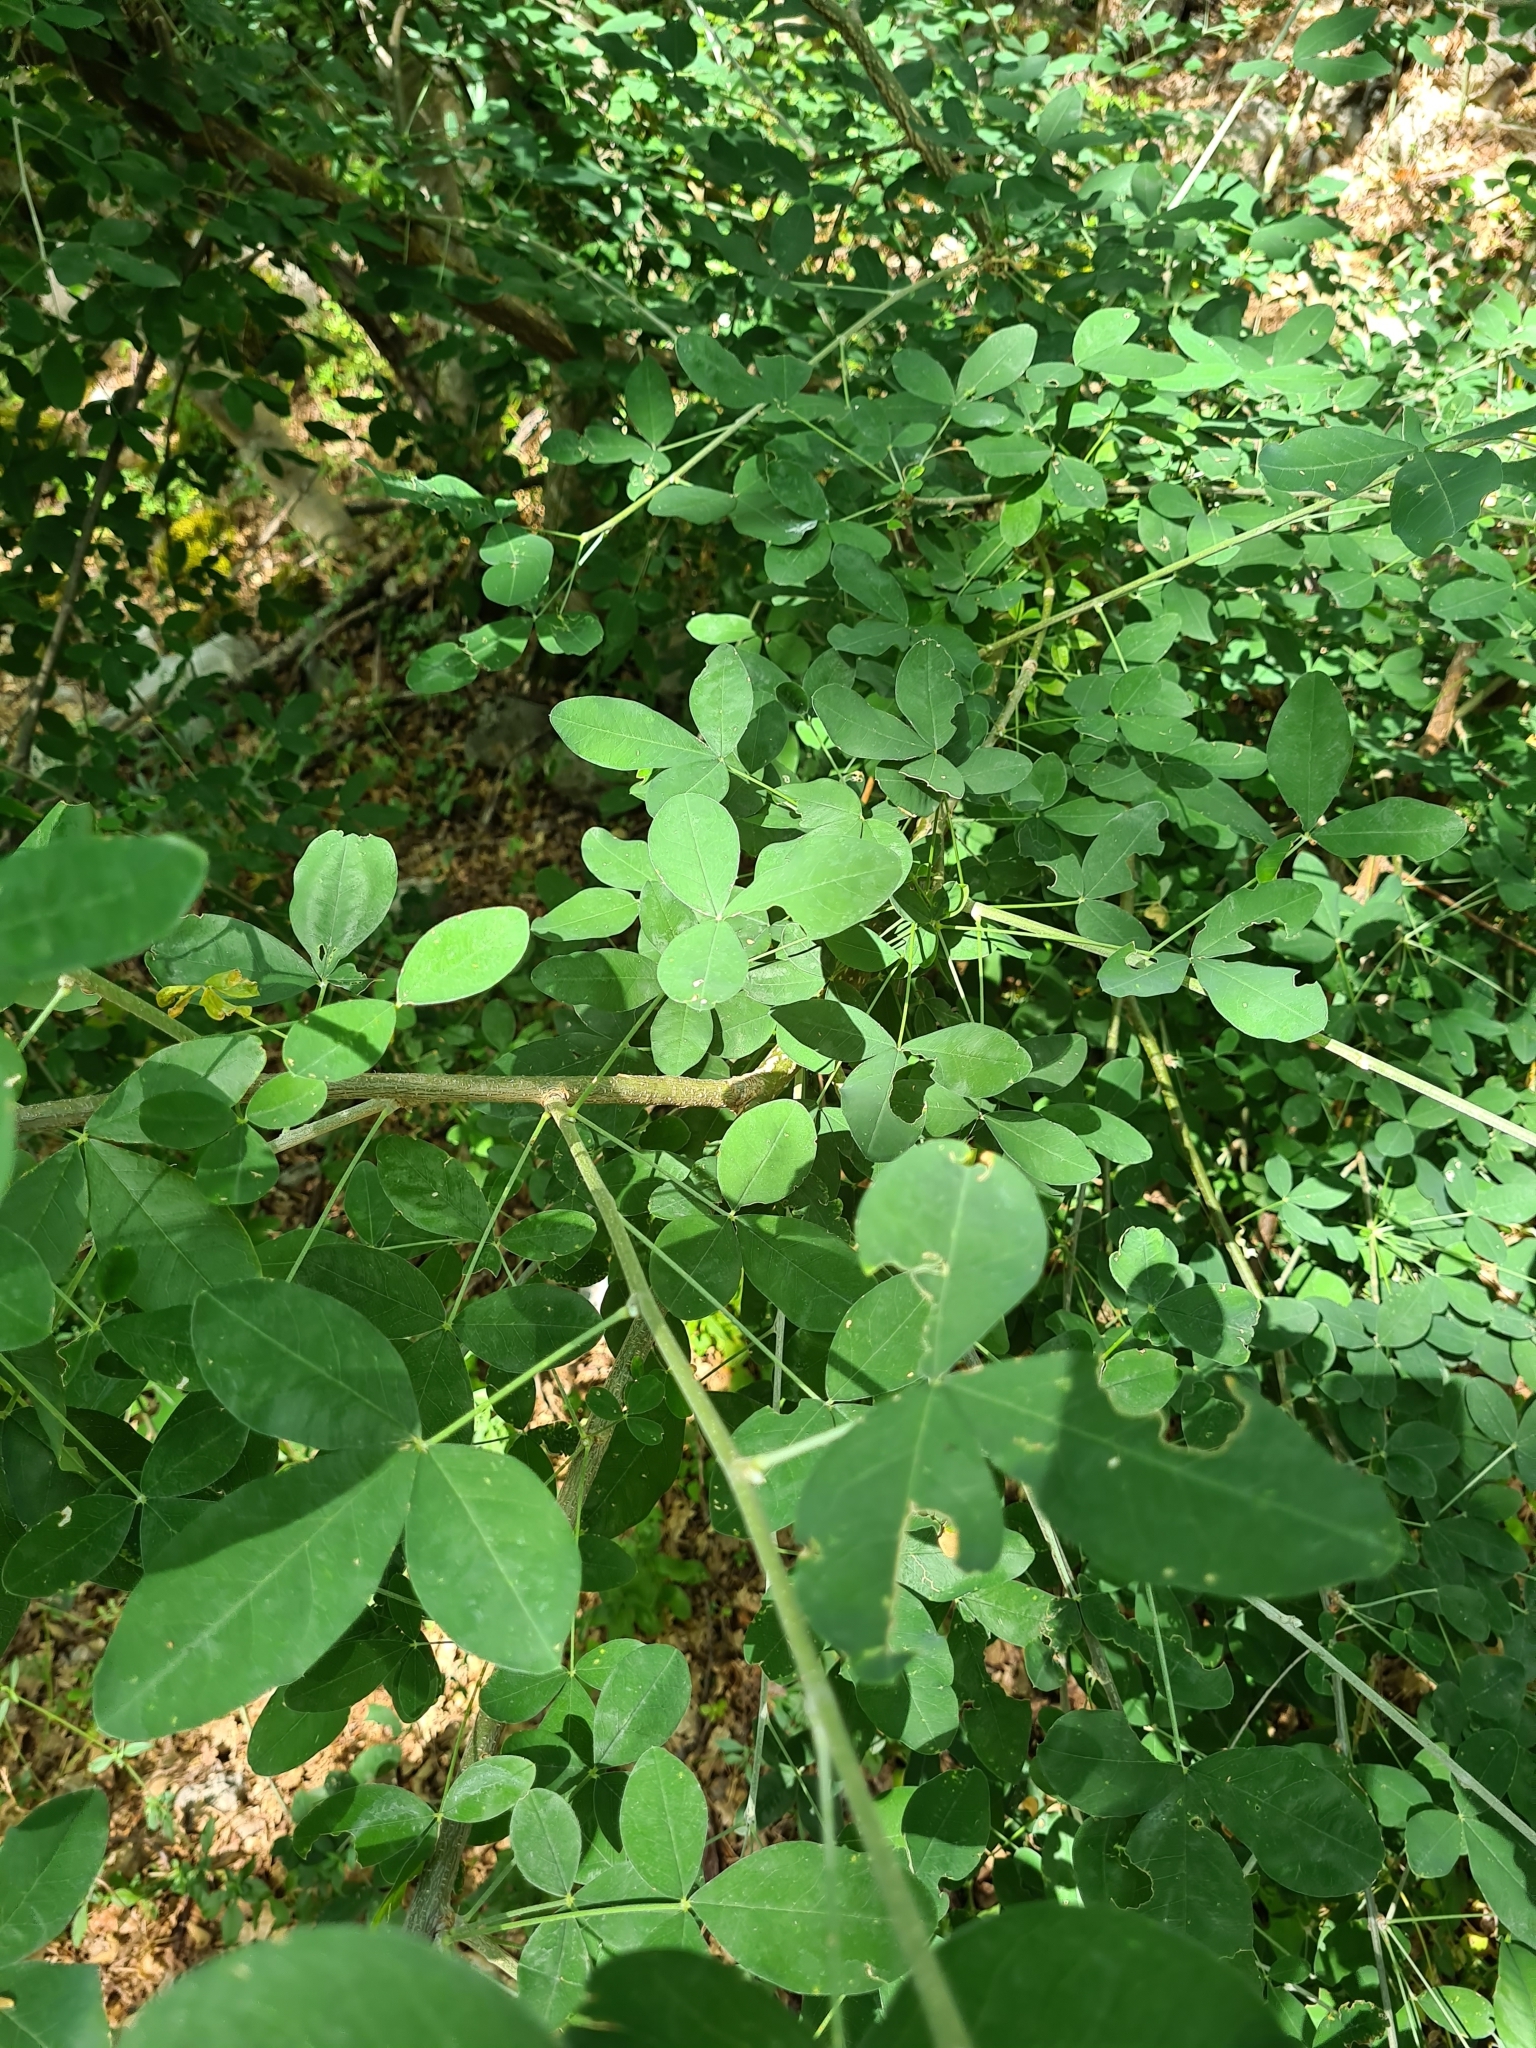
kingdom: Plantae
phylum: Tracheophyta
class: Magnoliopsida
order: Fabales
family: Fabaceae
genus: Laburnum
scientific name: Laburnum anagyroides
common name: Laburnum
